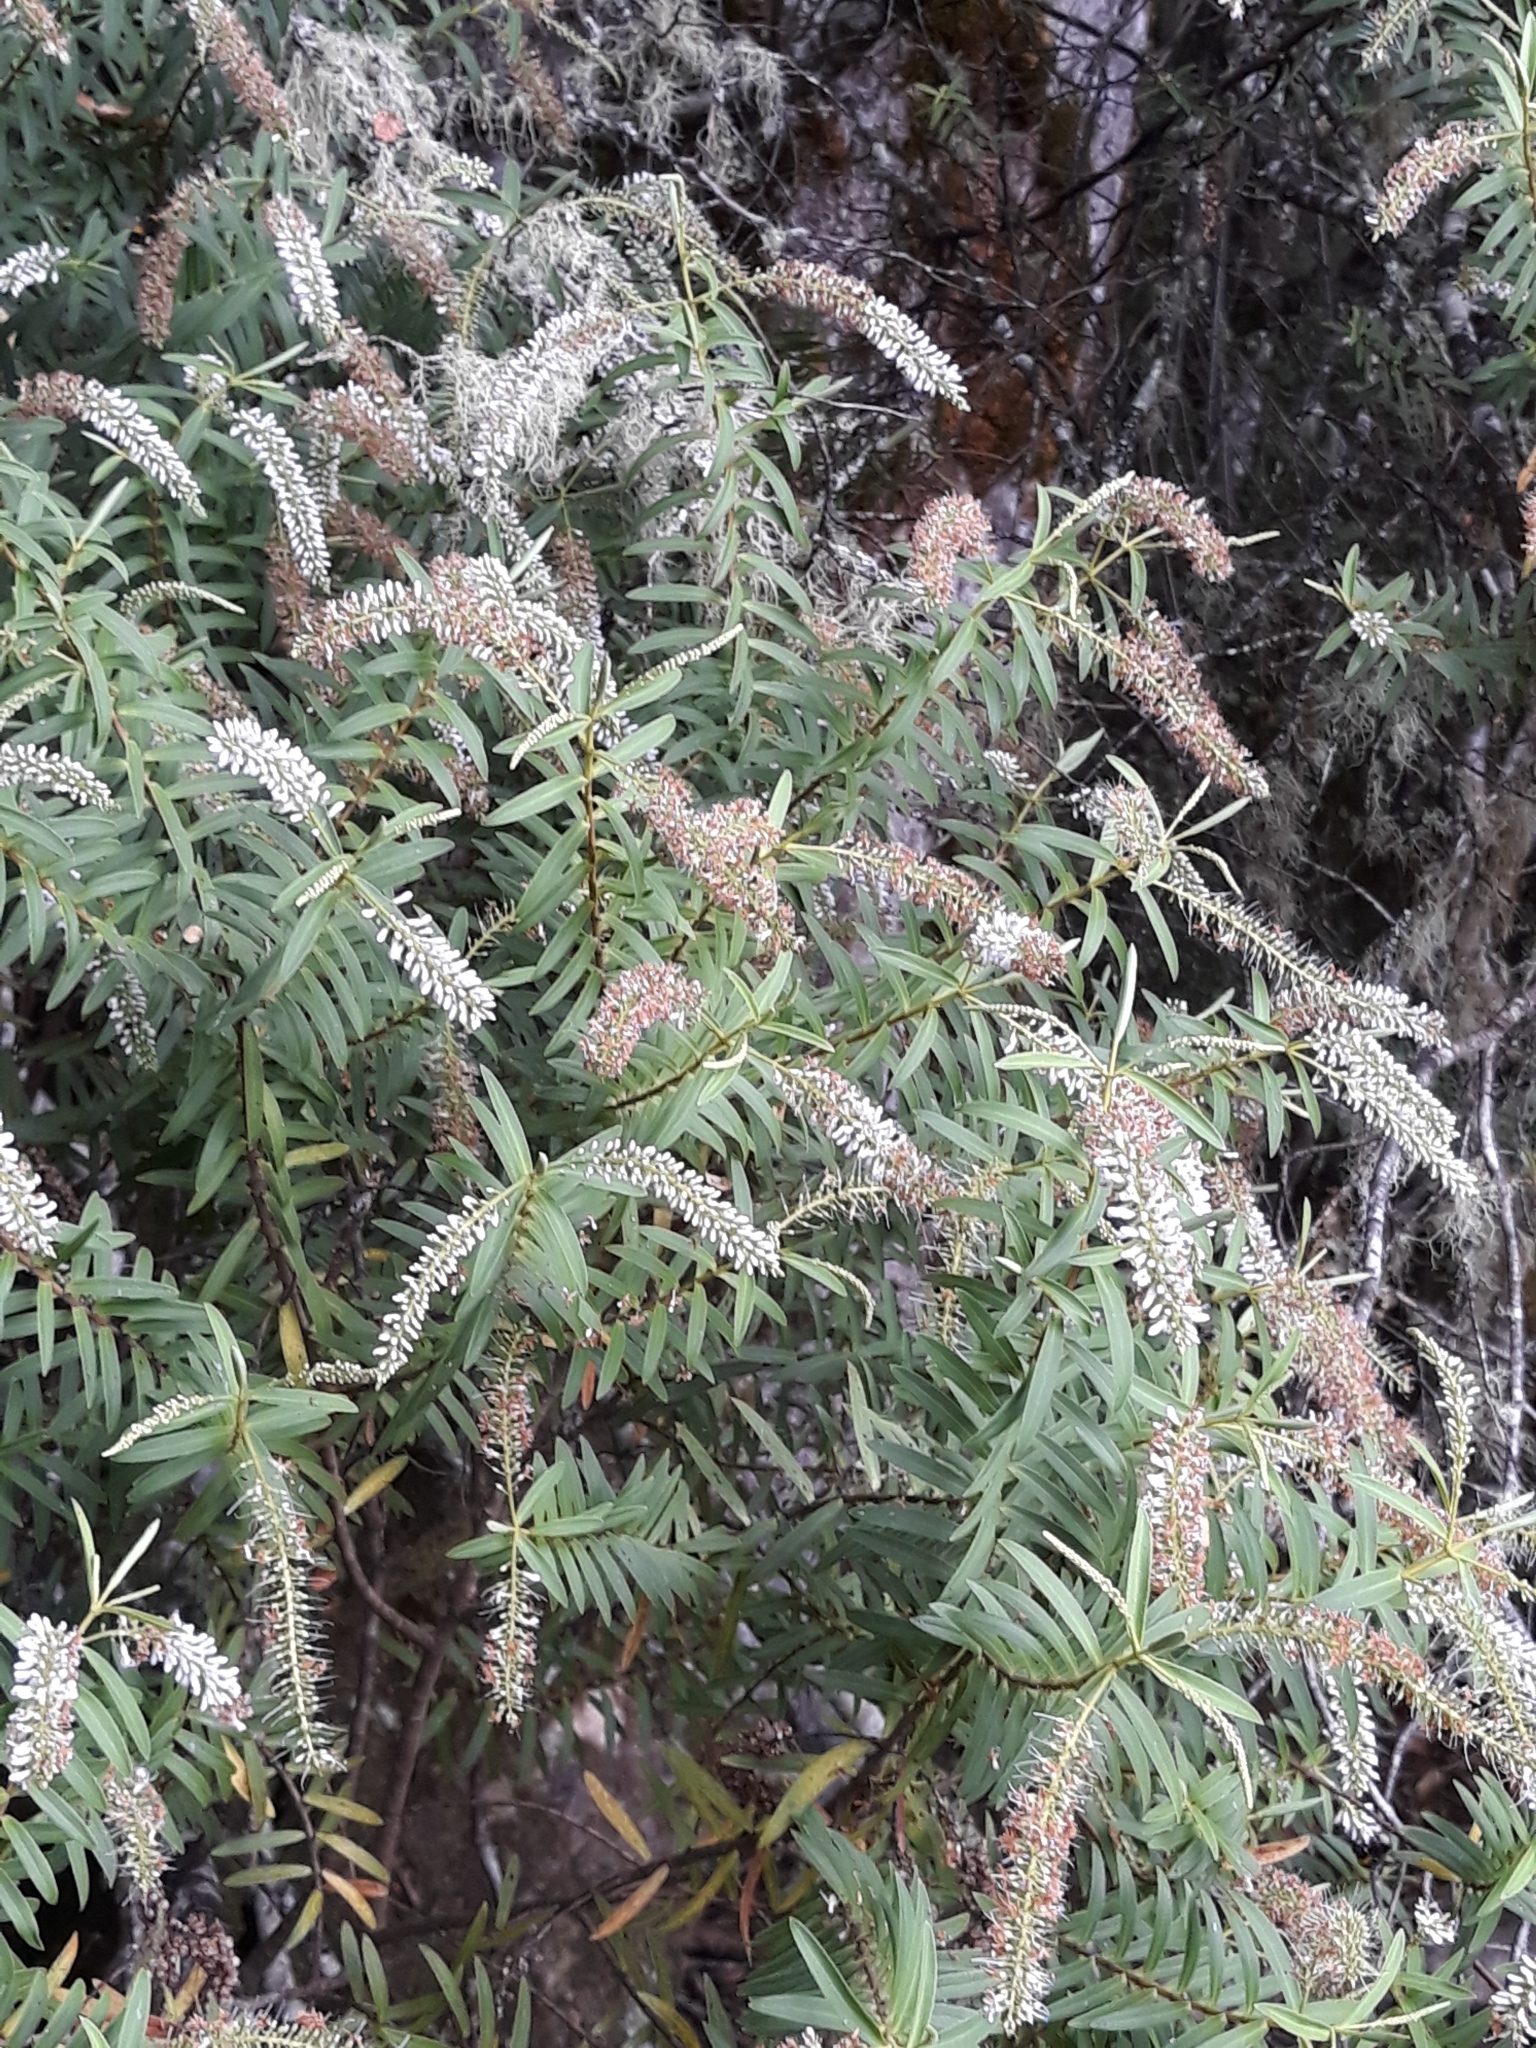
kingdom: Plantae
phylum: Tracheophyta
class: Magnoliopsida
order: Lamiales
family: Plantaginaceae
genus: Veronica
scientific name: Veronica leiophylla
